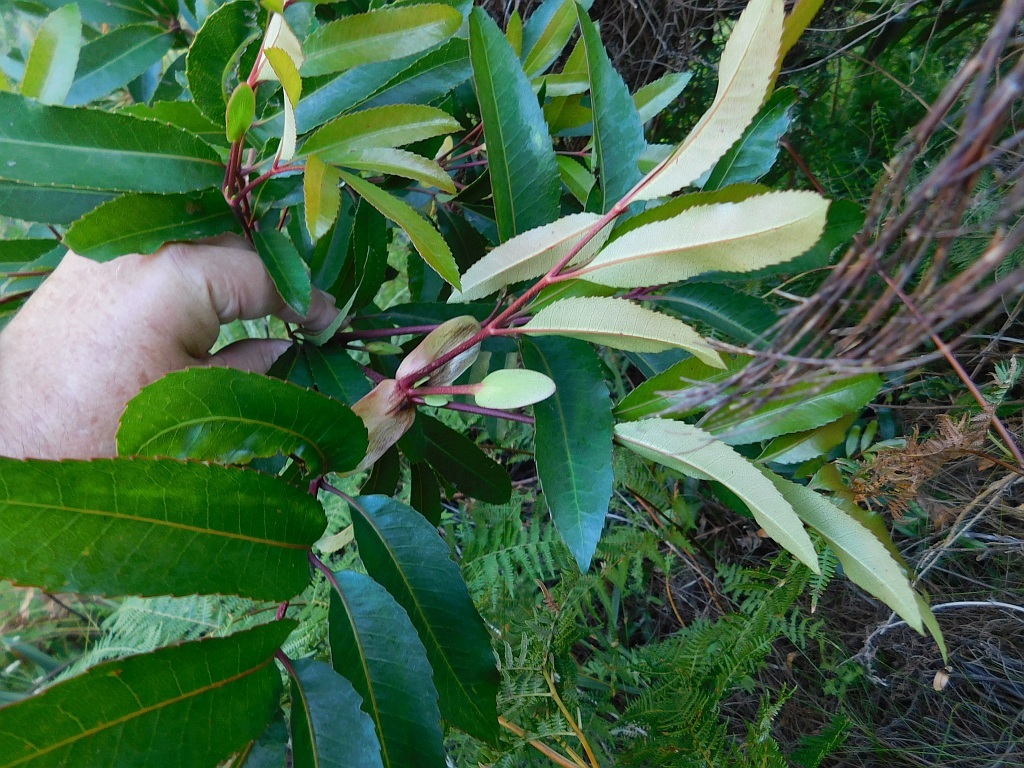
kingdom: Plantae
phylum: Tracheophyta
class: Magnoliopsida
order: Oxalidales
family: Cunoniaceae
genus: Cunonia
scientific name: Cunonia capensis
